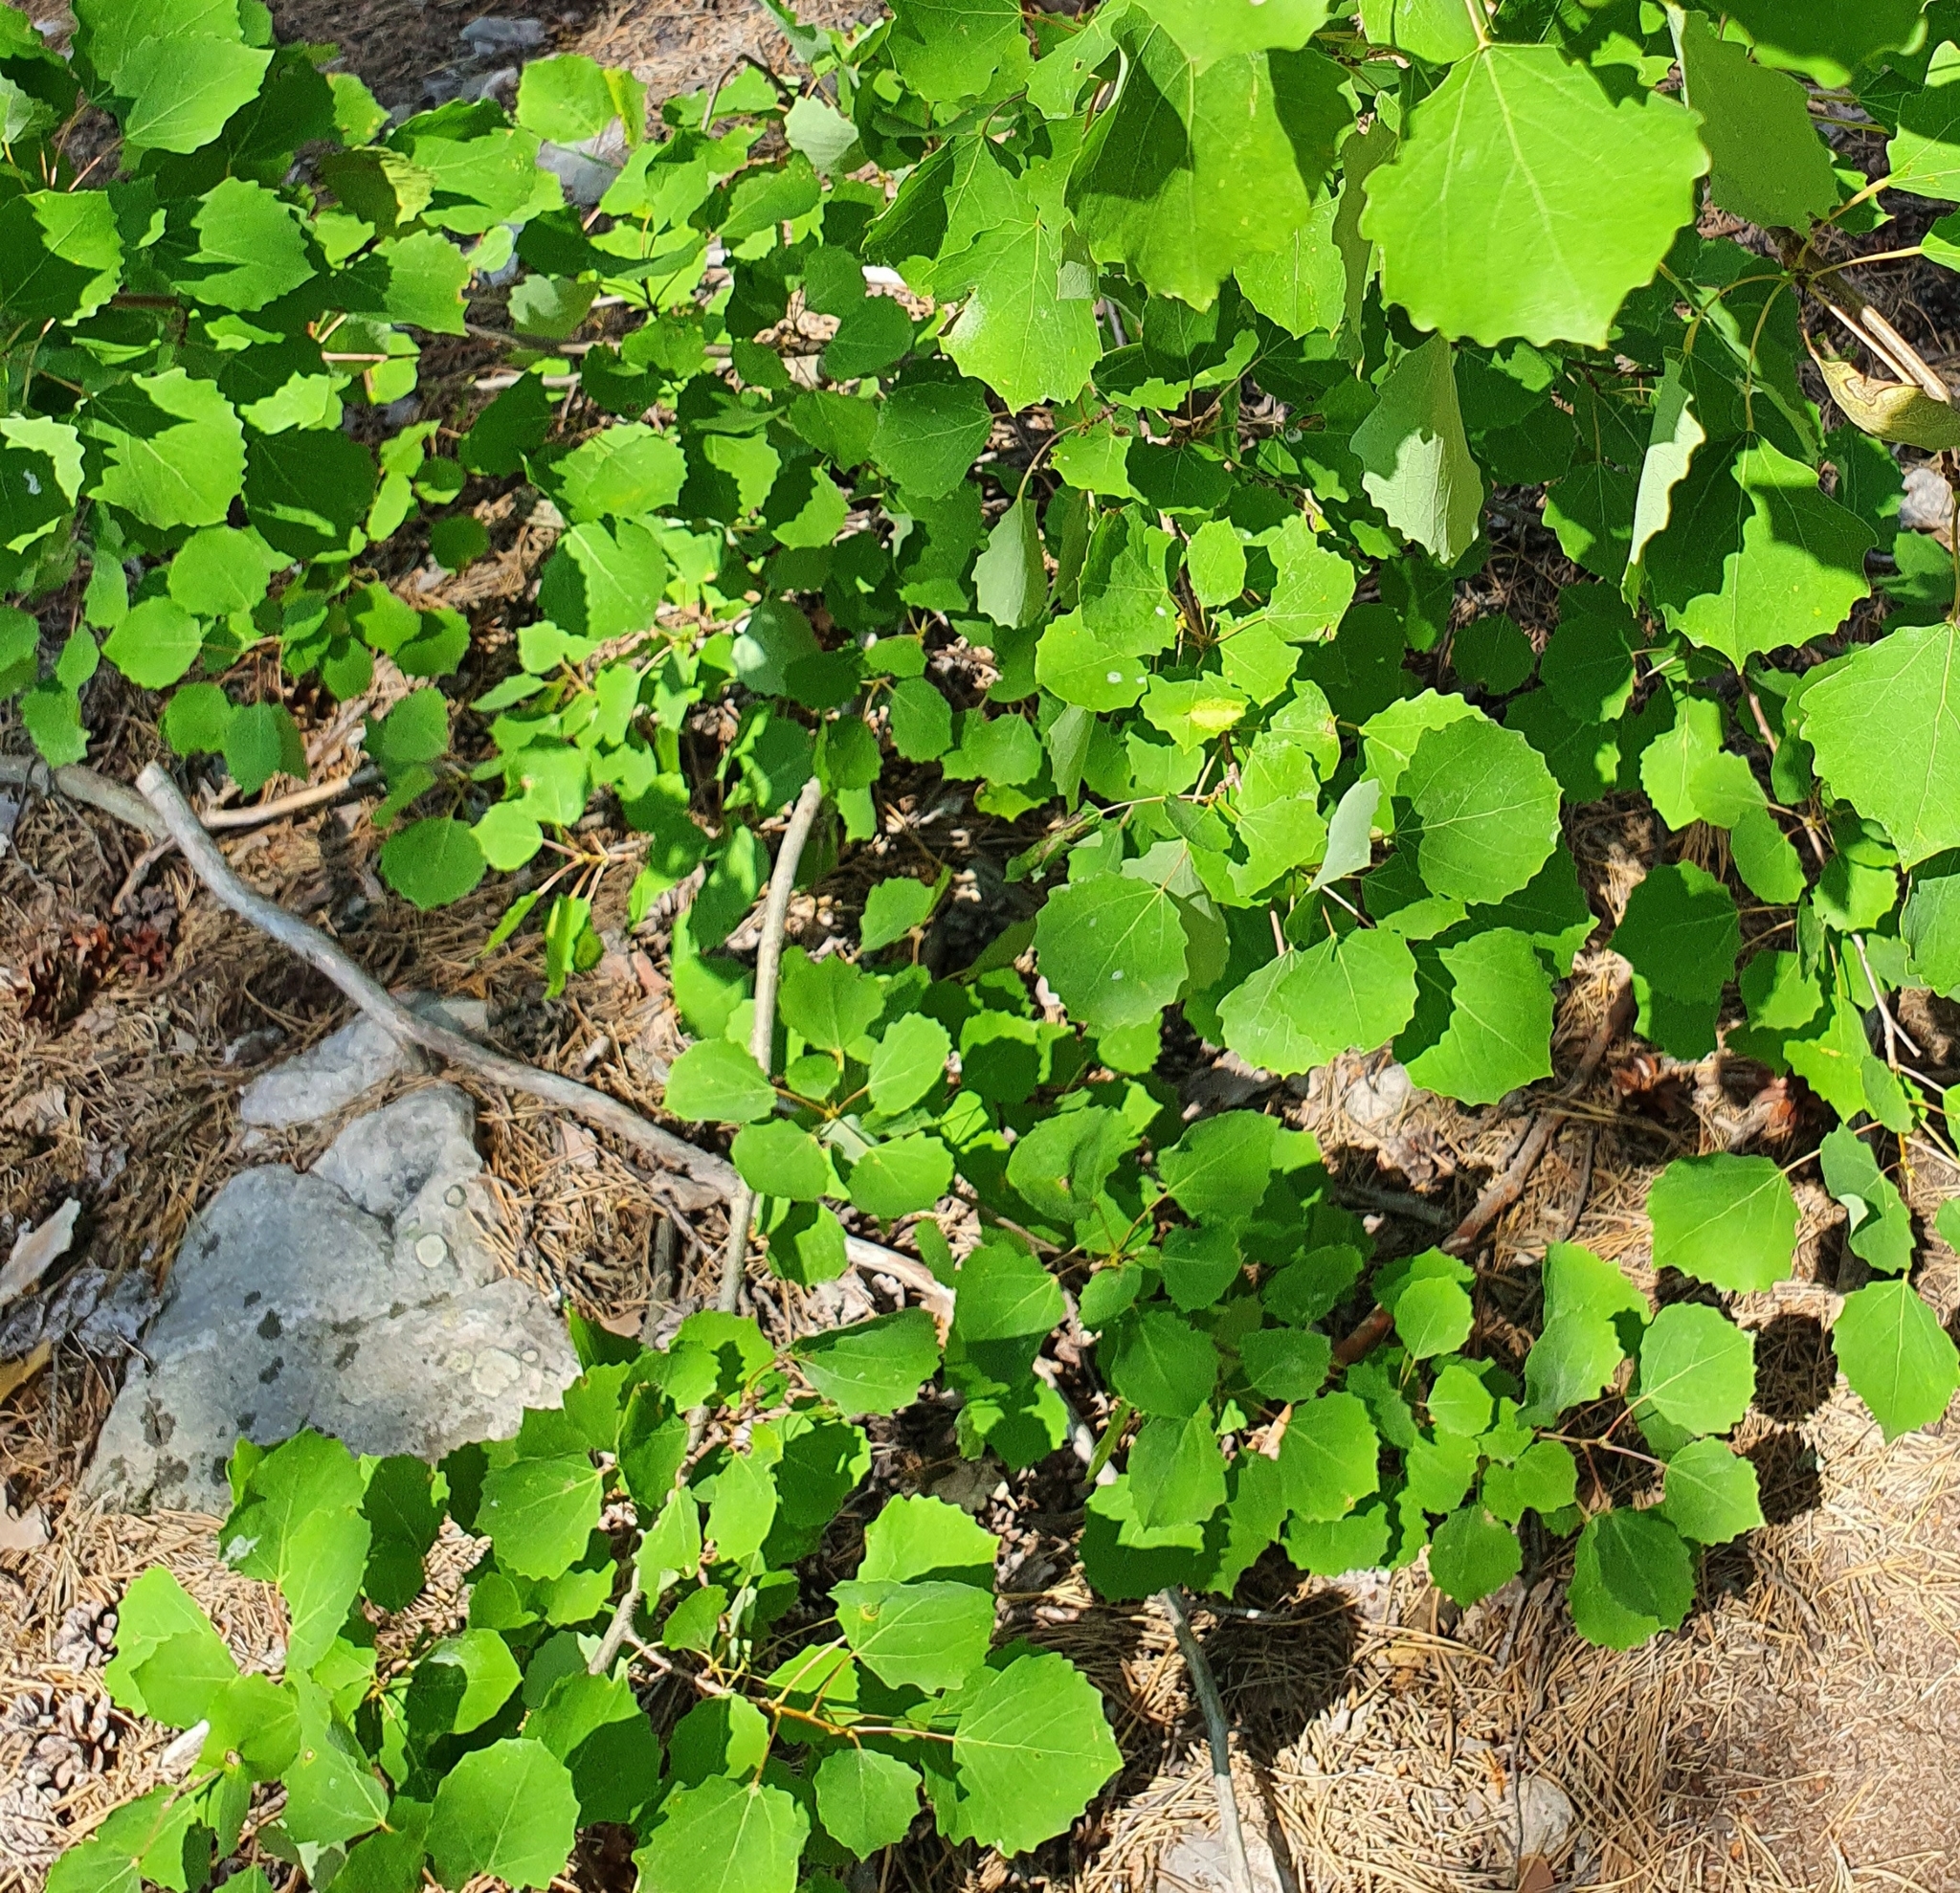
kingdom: Plantae
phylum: Tracheophyta
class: Magnoliopsida
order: Malpighiales
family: Salicaceae
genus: Populus
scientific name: Populus tremula
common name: European aspen
